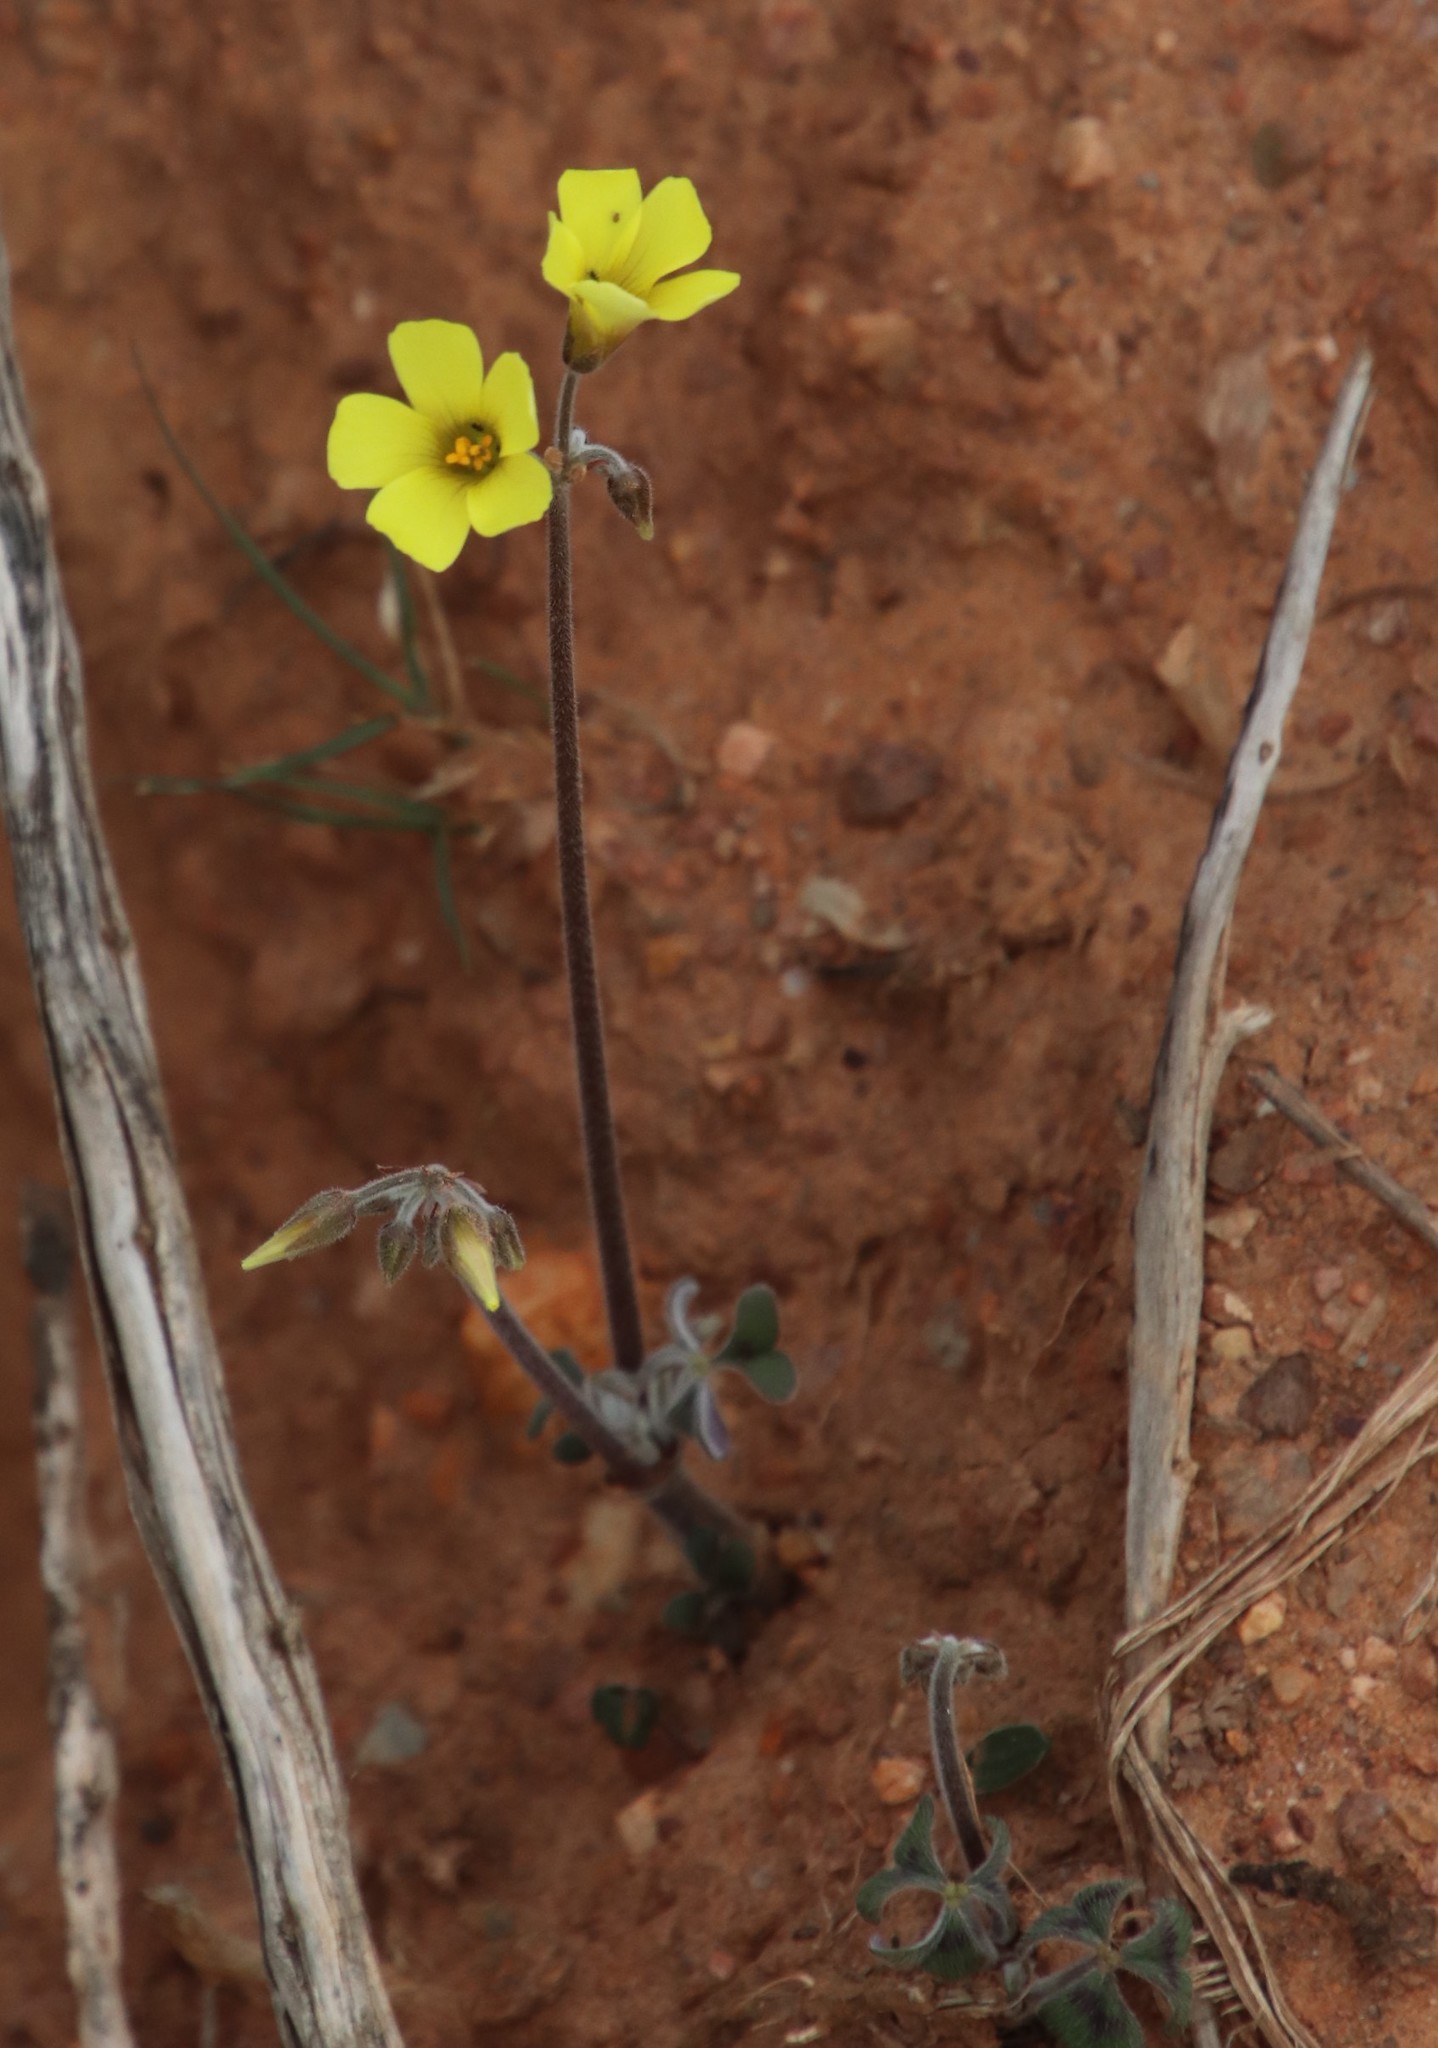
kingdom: Plantae
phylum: Tracheophyta
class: Magnoliopsida
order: Oxalidales
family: Oxalidaceae
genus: Oxalis
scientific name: Oxalis pes-caprae
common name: Bermuda-buttercup
